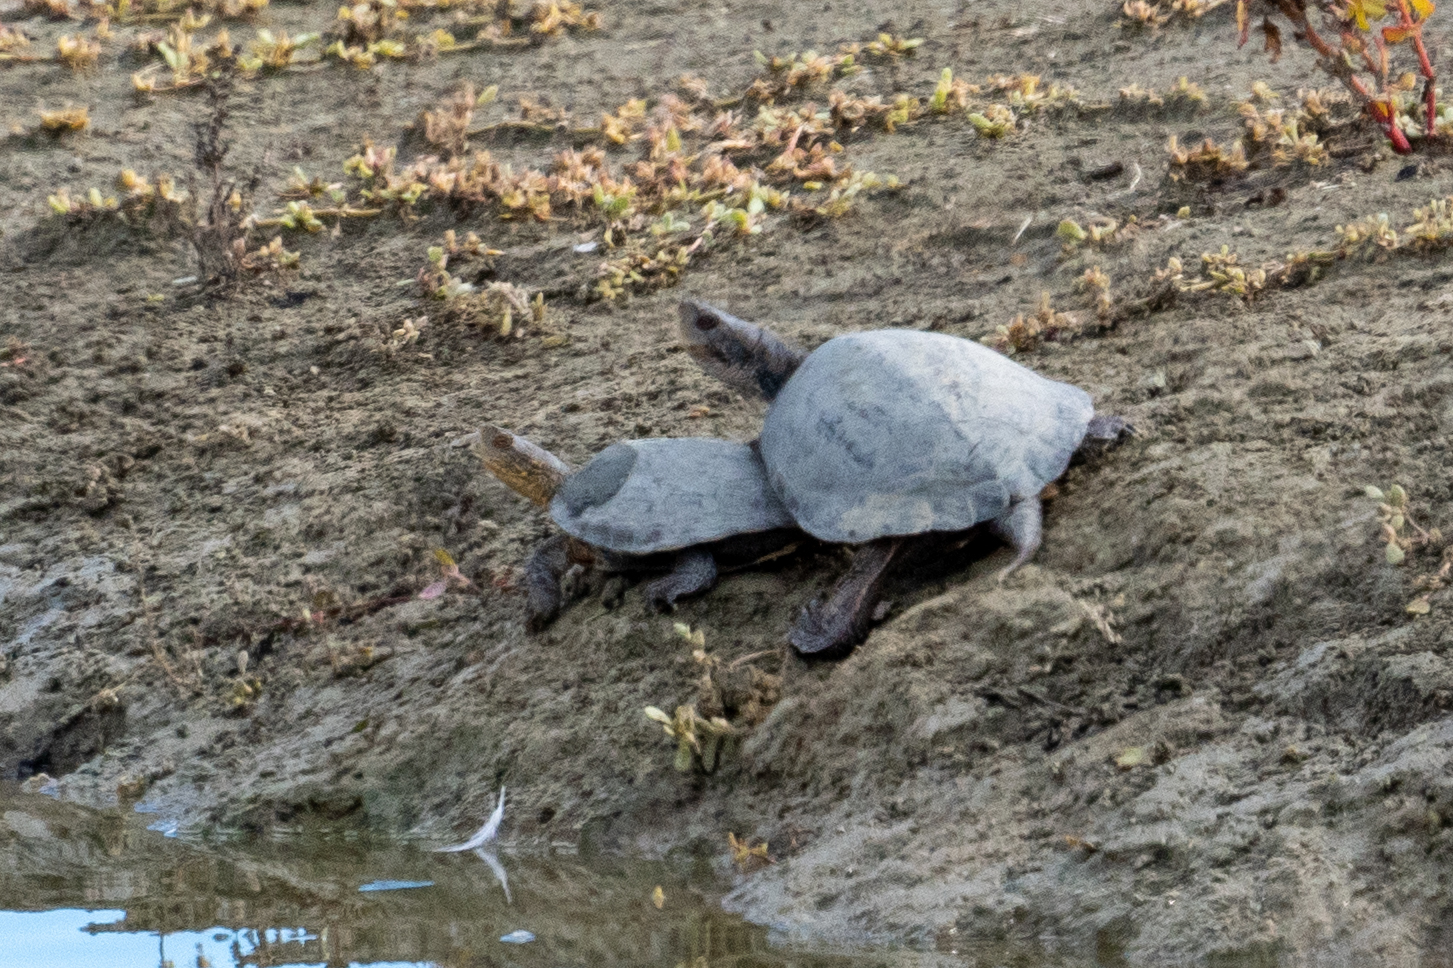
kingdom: Animalia
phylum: Chordata
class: Testudines
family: Emydidae
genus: Actinemys
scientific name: Actinemys marmorata
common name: Western pond turtle
